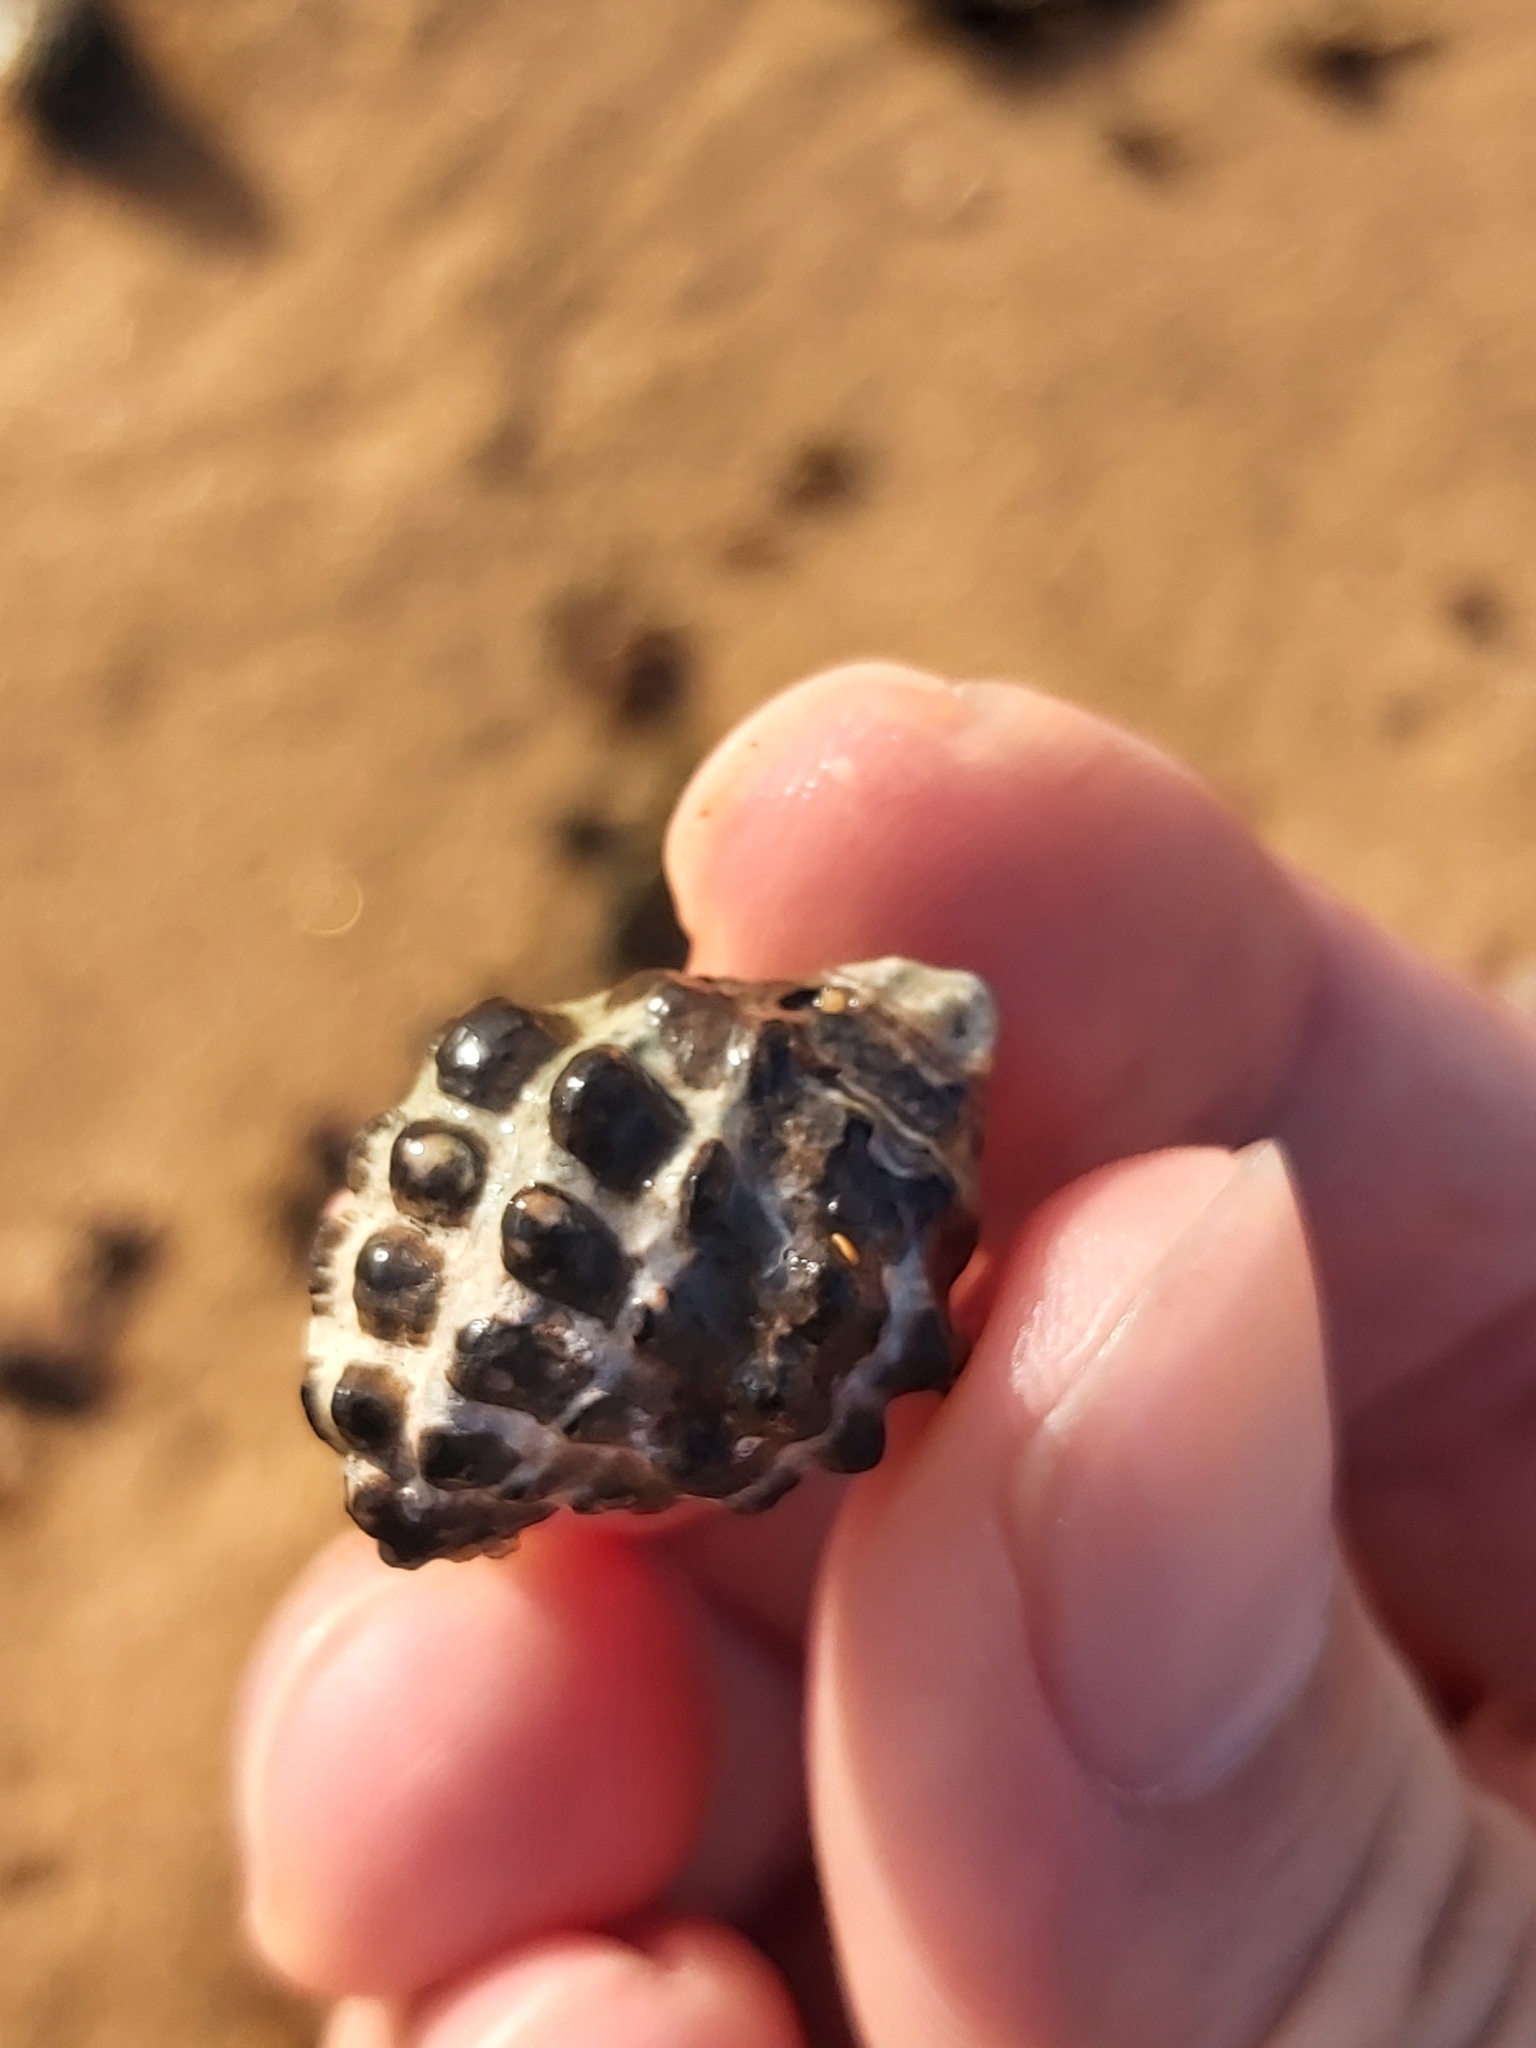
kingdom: Animalia
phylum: Mollusca
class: Gastropoda
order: Neogastropoda
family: Muricidae
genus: Tenguella
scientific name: Tenguella marginalba
